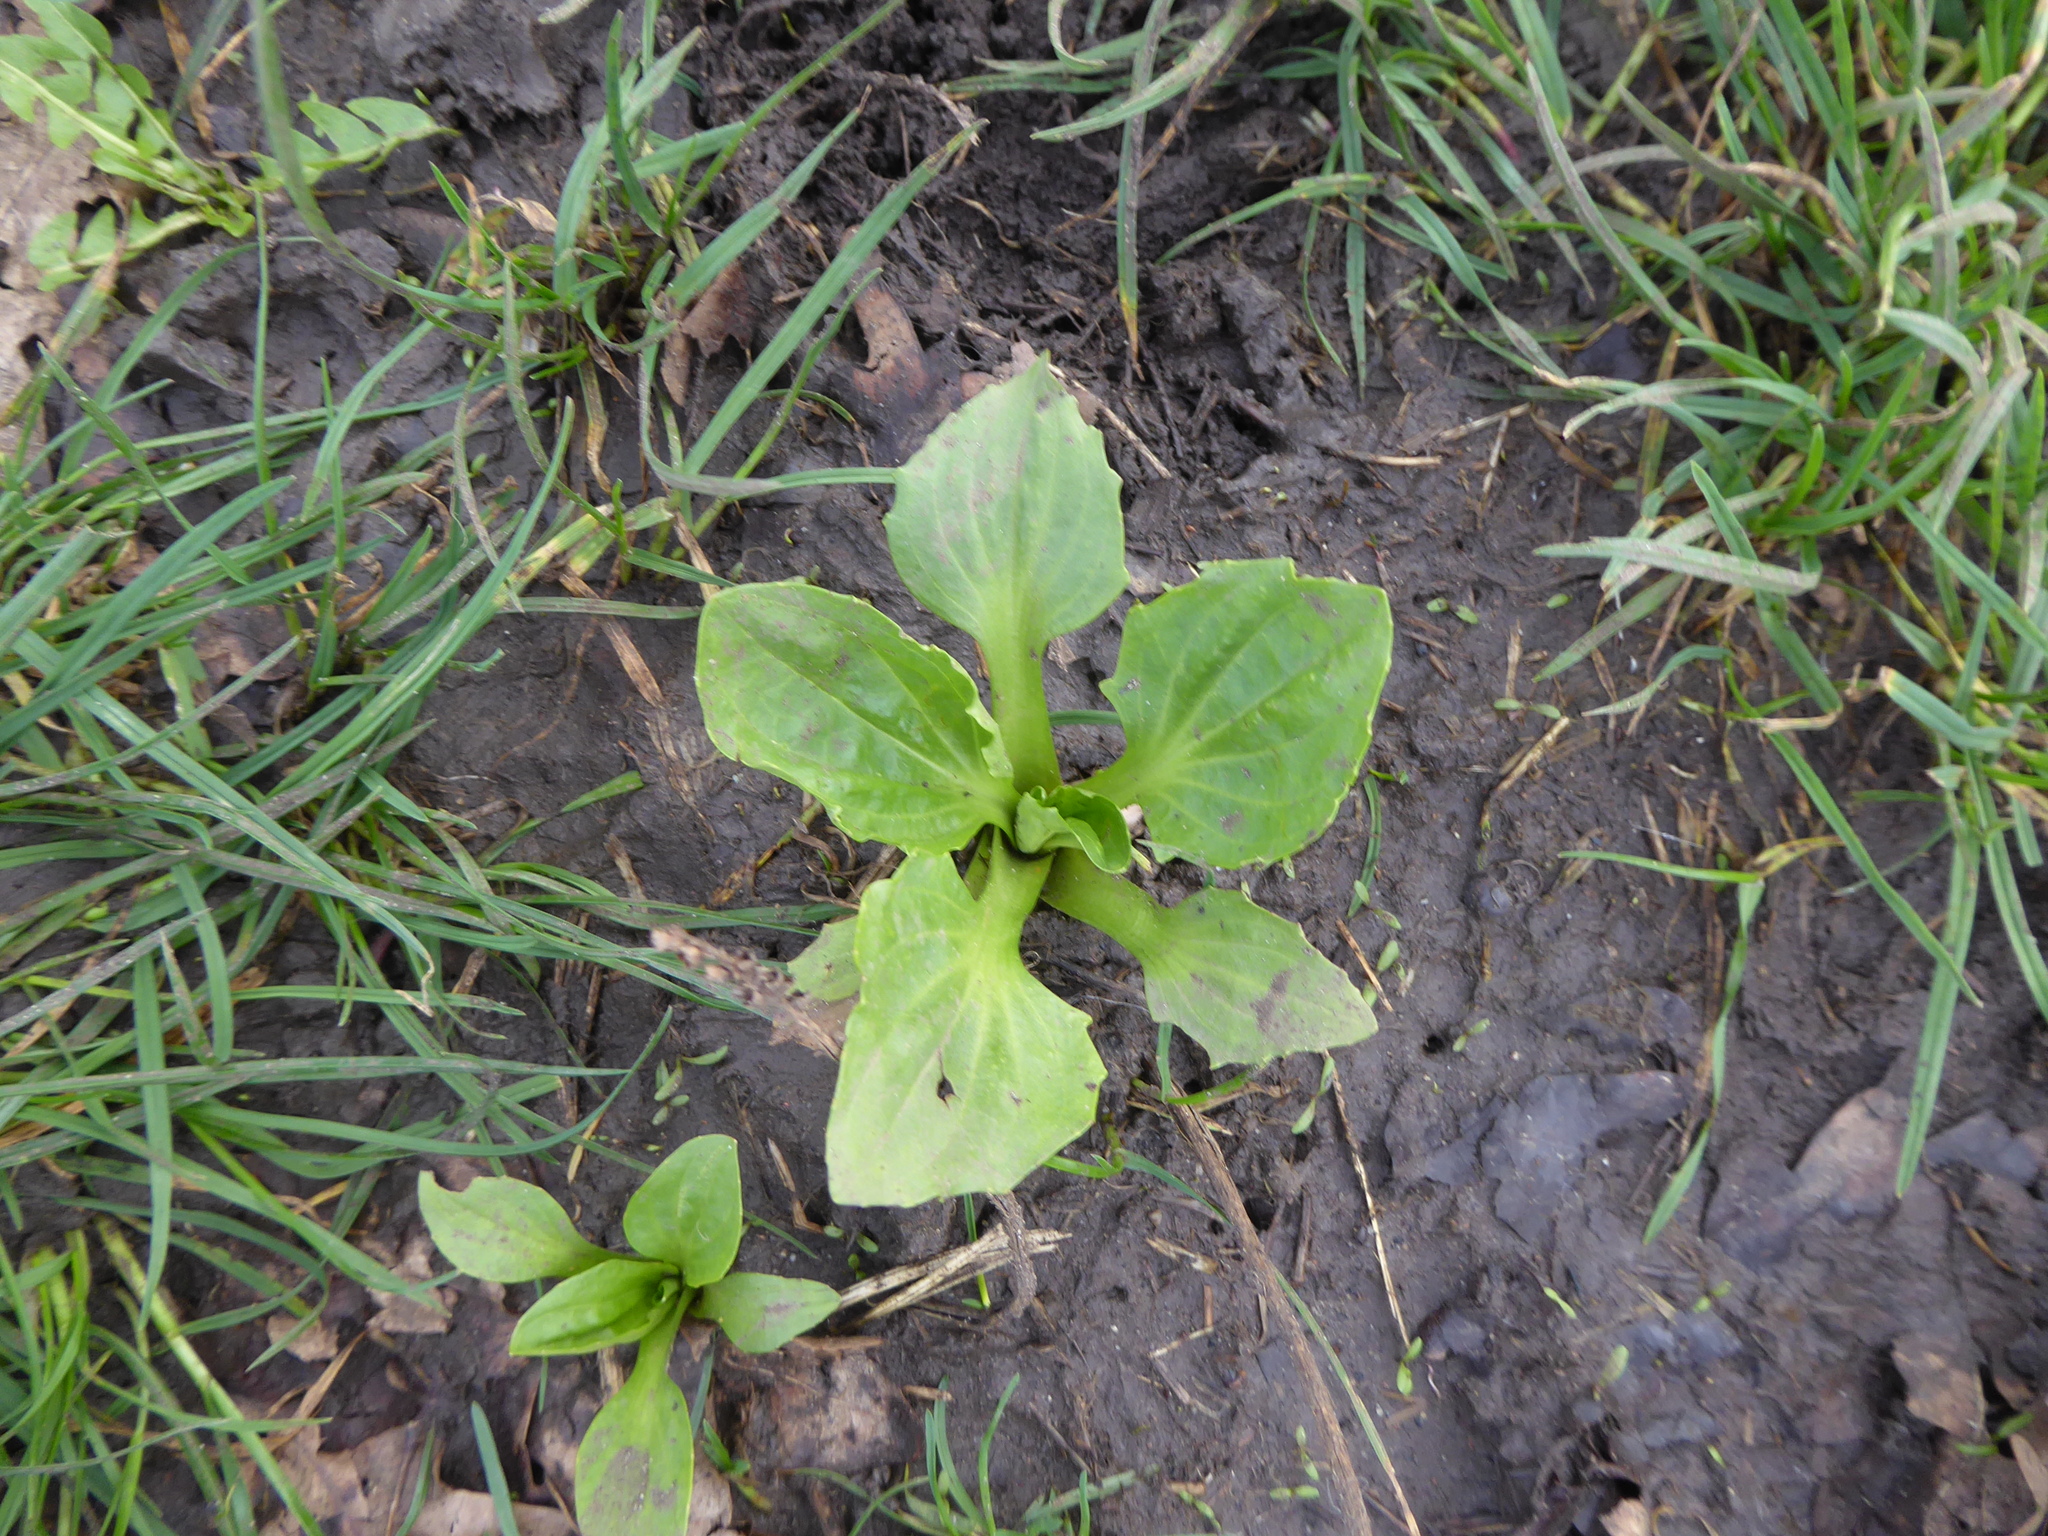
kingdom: Plantae
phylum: Tracheophyta
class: Magnoliopsida
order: Lamiales
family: Plantaginaceae
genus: Plantago
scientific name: Plantago major
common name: Common plantain
